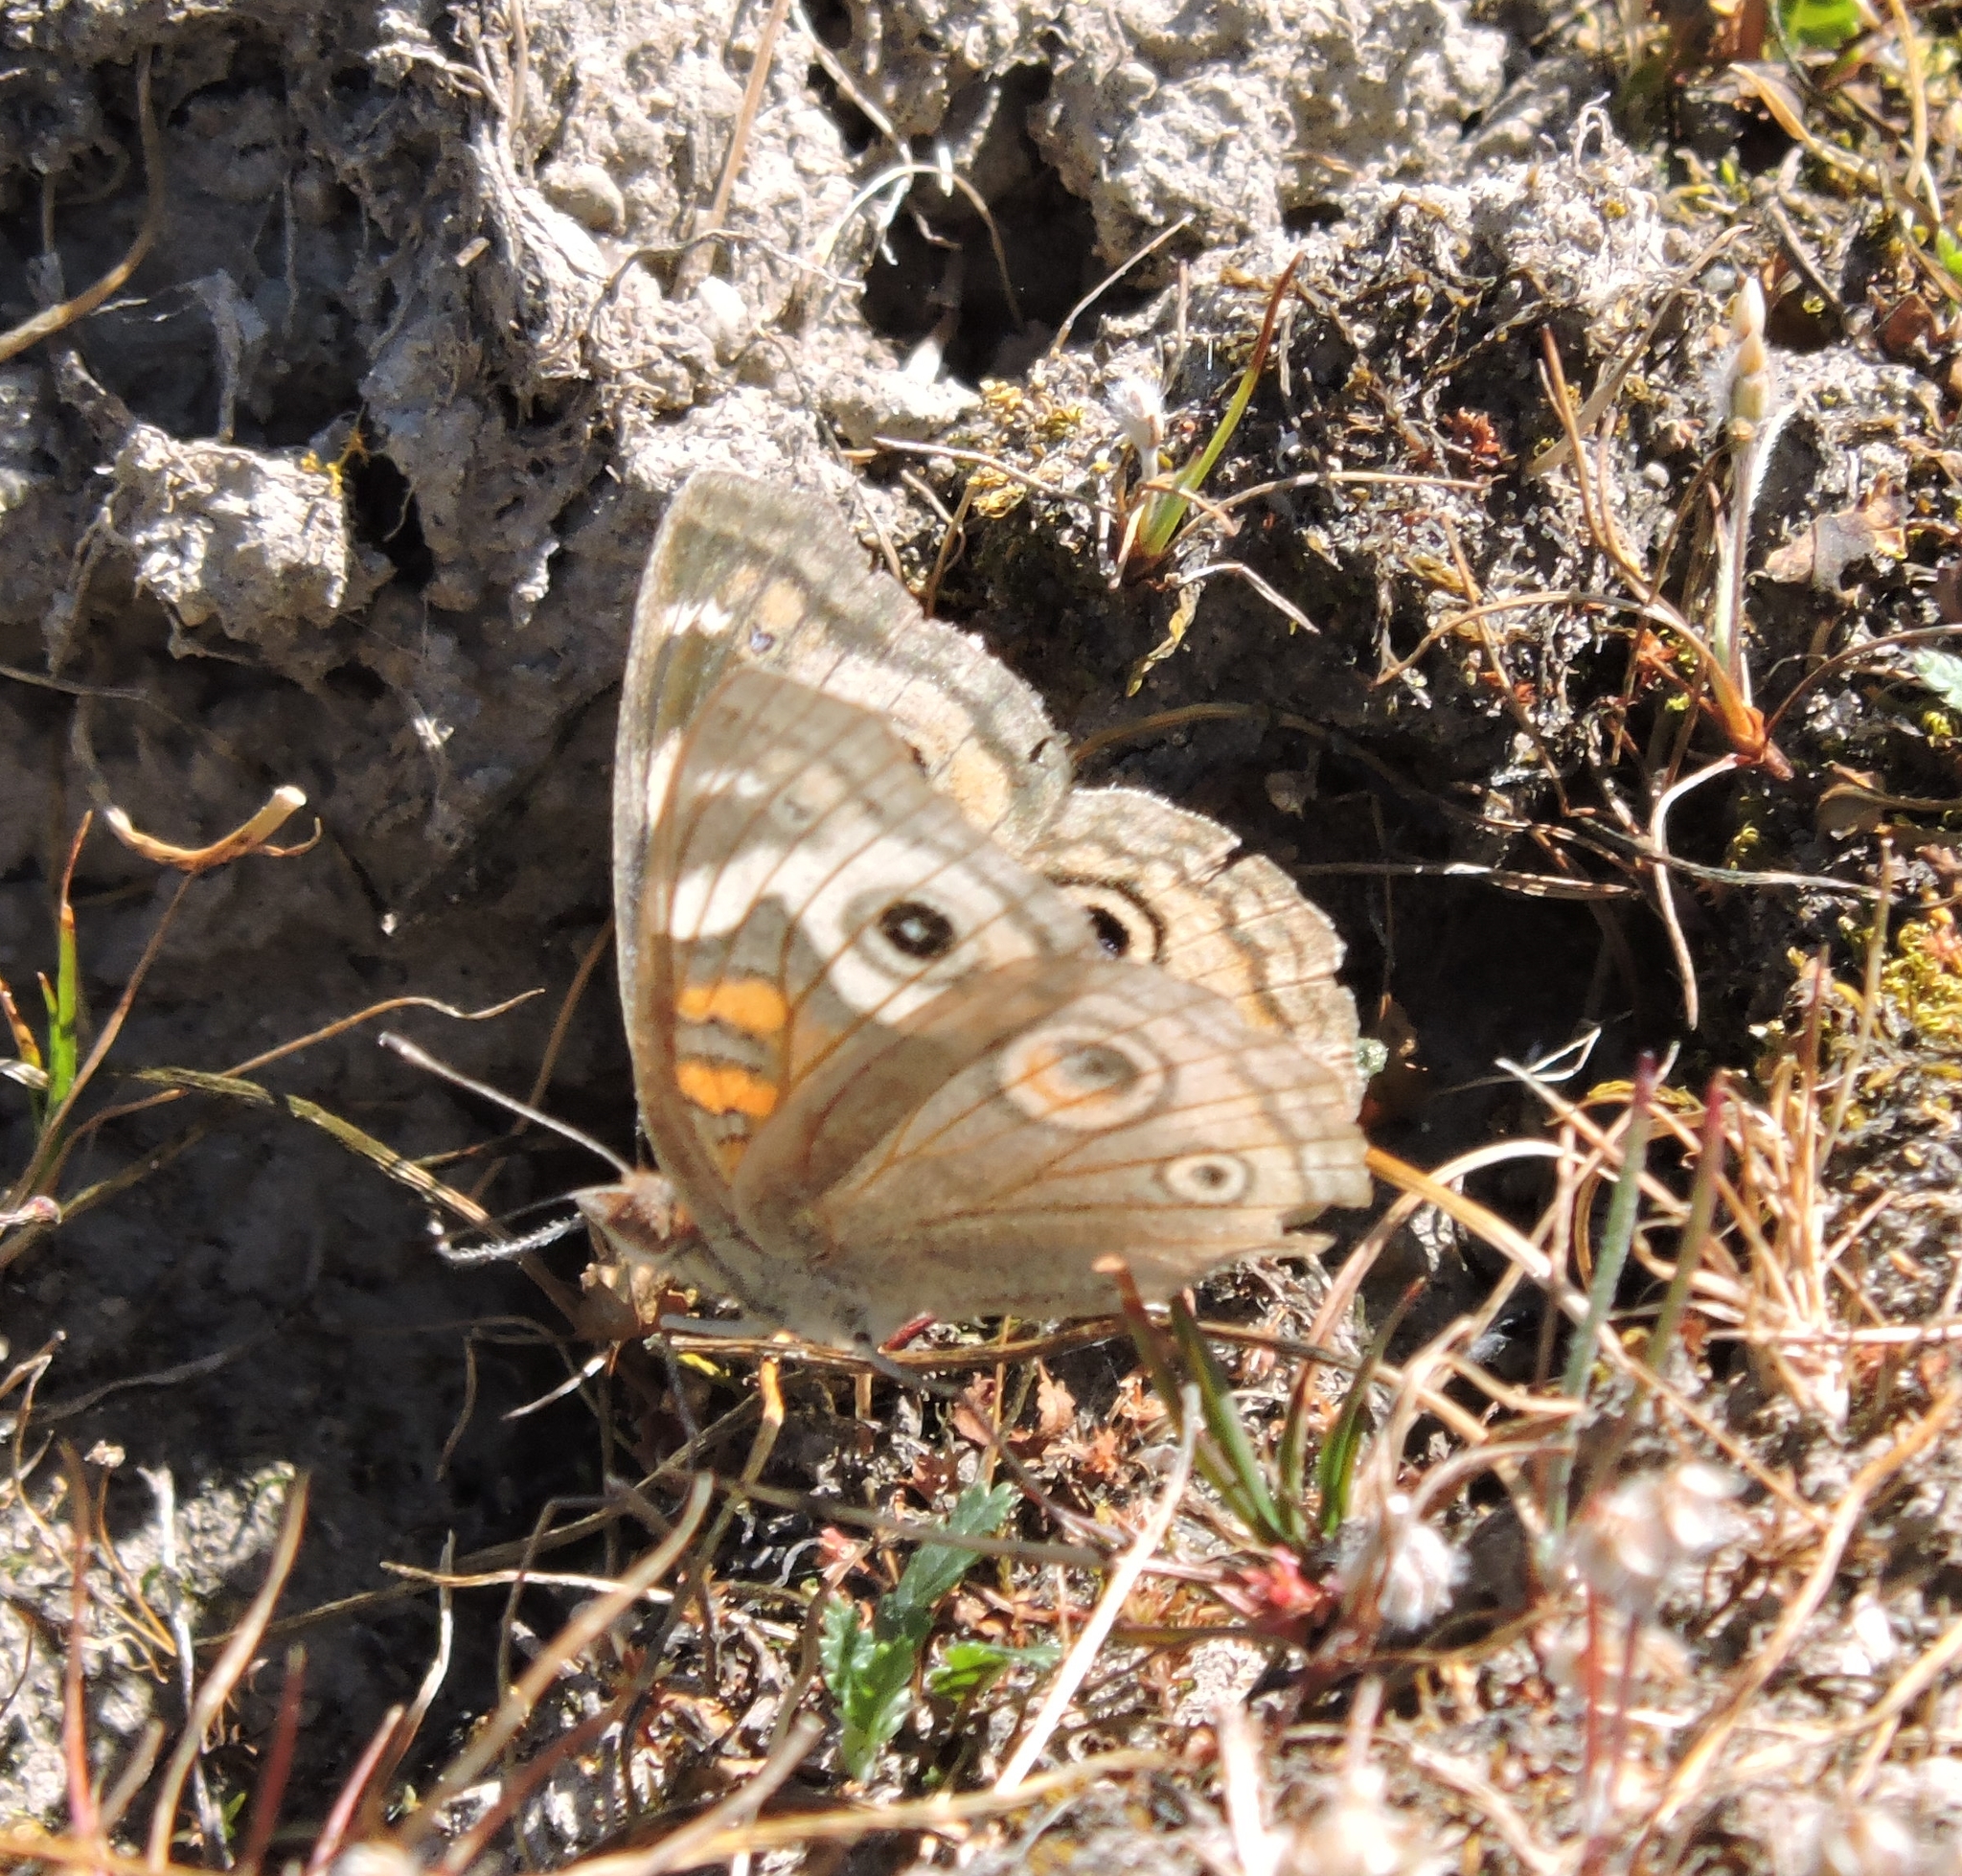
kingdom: Animalia
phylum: Arthropoda
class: Insecta
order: Lepidoptera
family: Nymphalidae
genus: Junonia
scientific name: Junonia grisea
